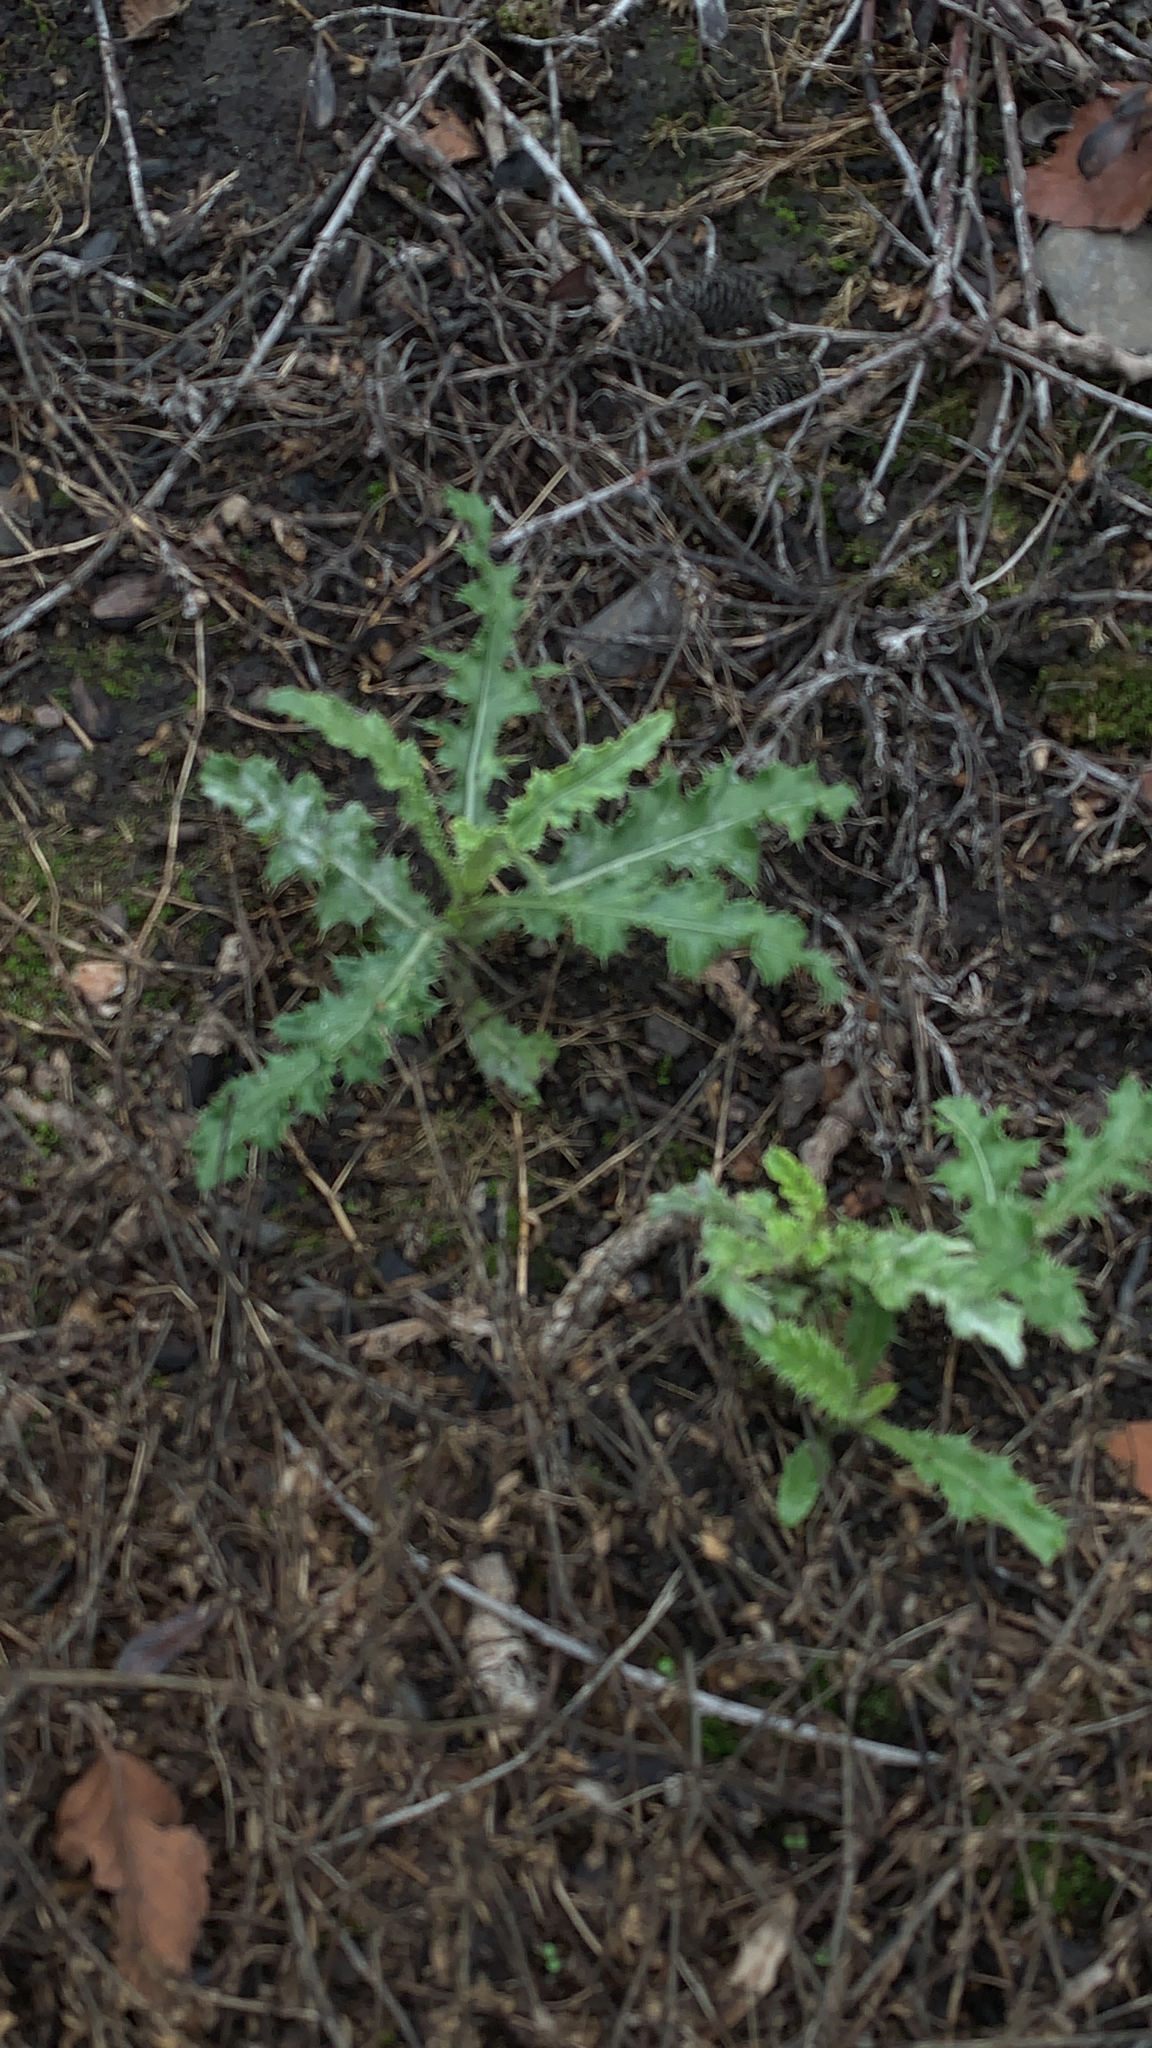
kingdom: Plantae
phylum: Tracheophyta
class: Magnoliopsida
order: Asterales
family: Asteraceae
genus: Cirsium
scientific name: Cirsium arvense
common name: Creeping thistle
